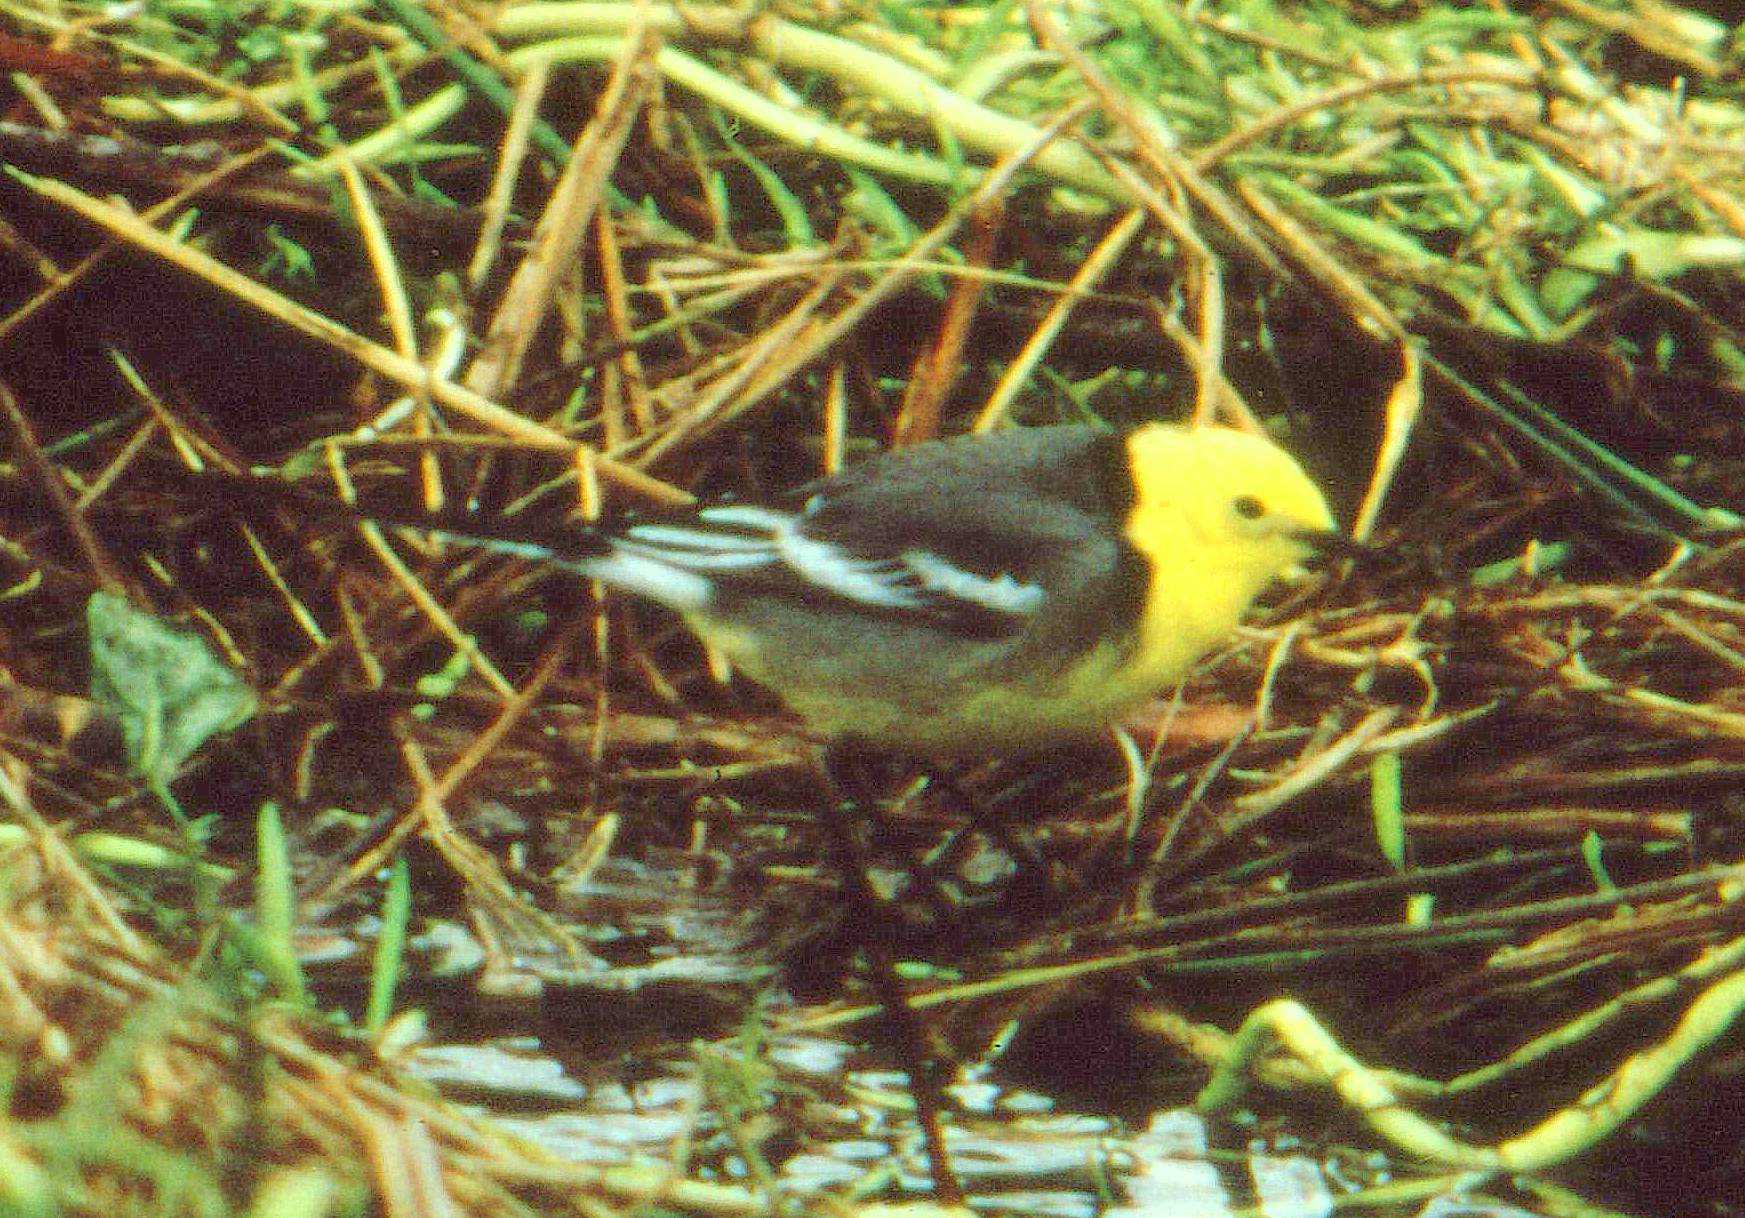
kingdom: Animalia
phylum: Chordata
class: Aves
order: Passeriformes
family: Motacillidae
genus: Motacilla
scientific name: Motacilla citreola
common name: Citrine wagtail
